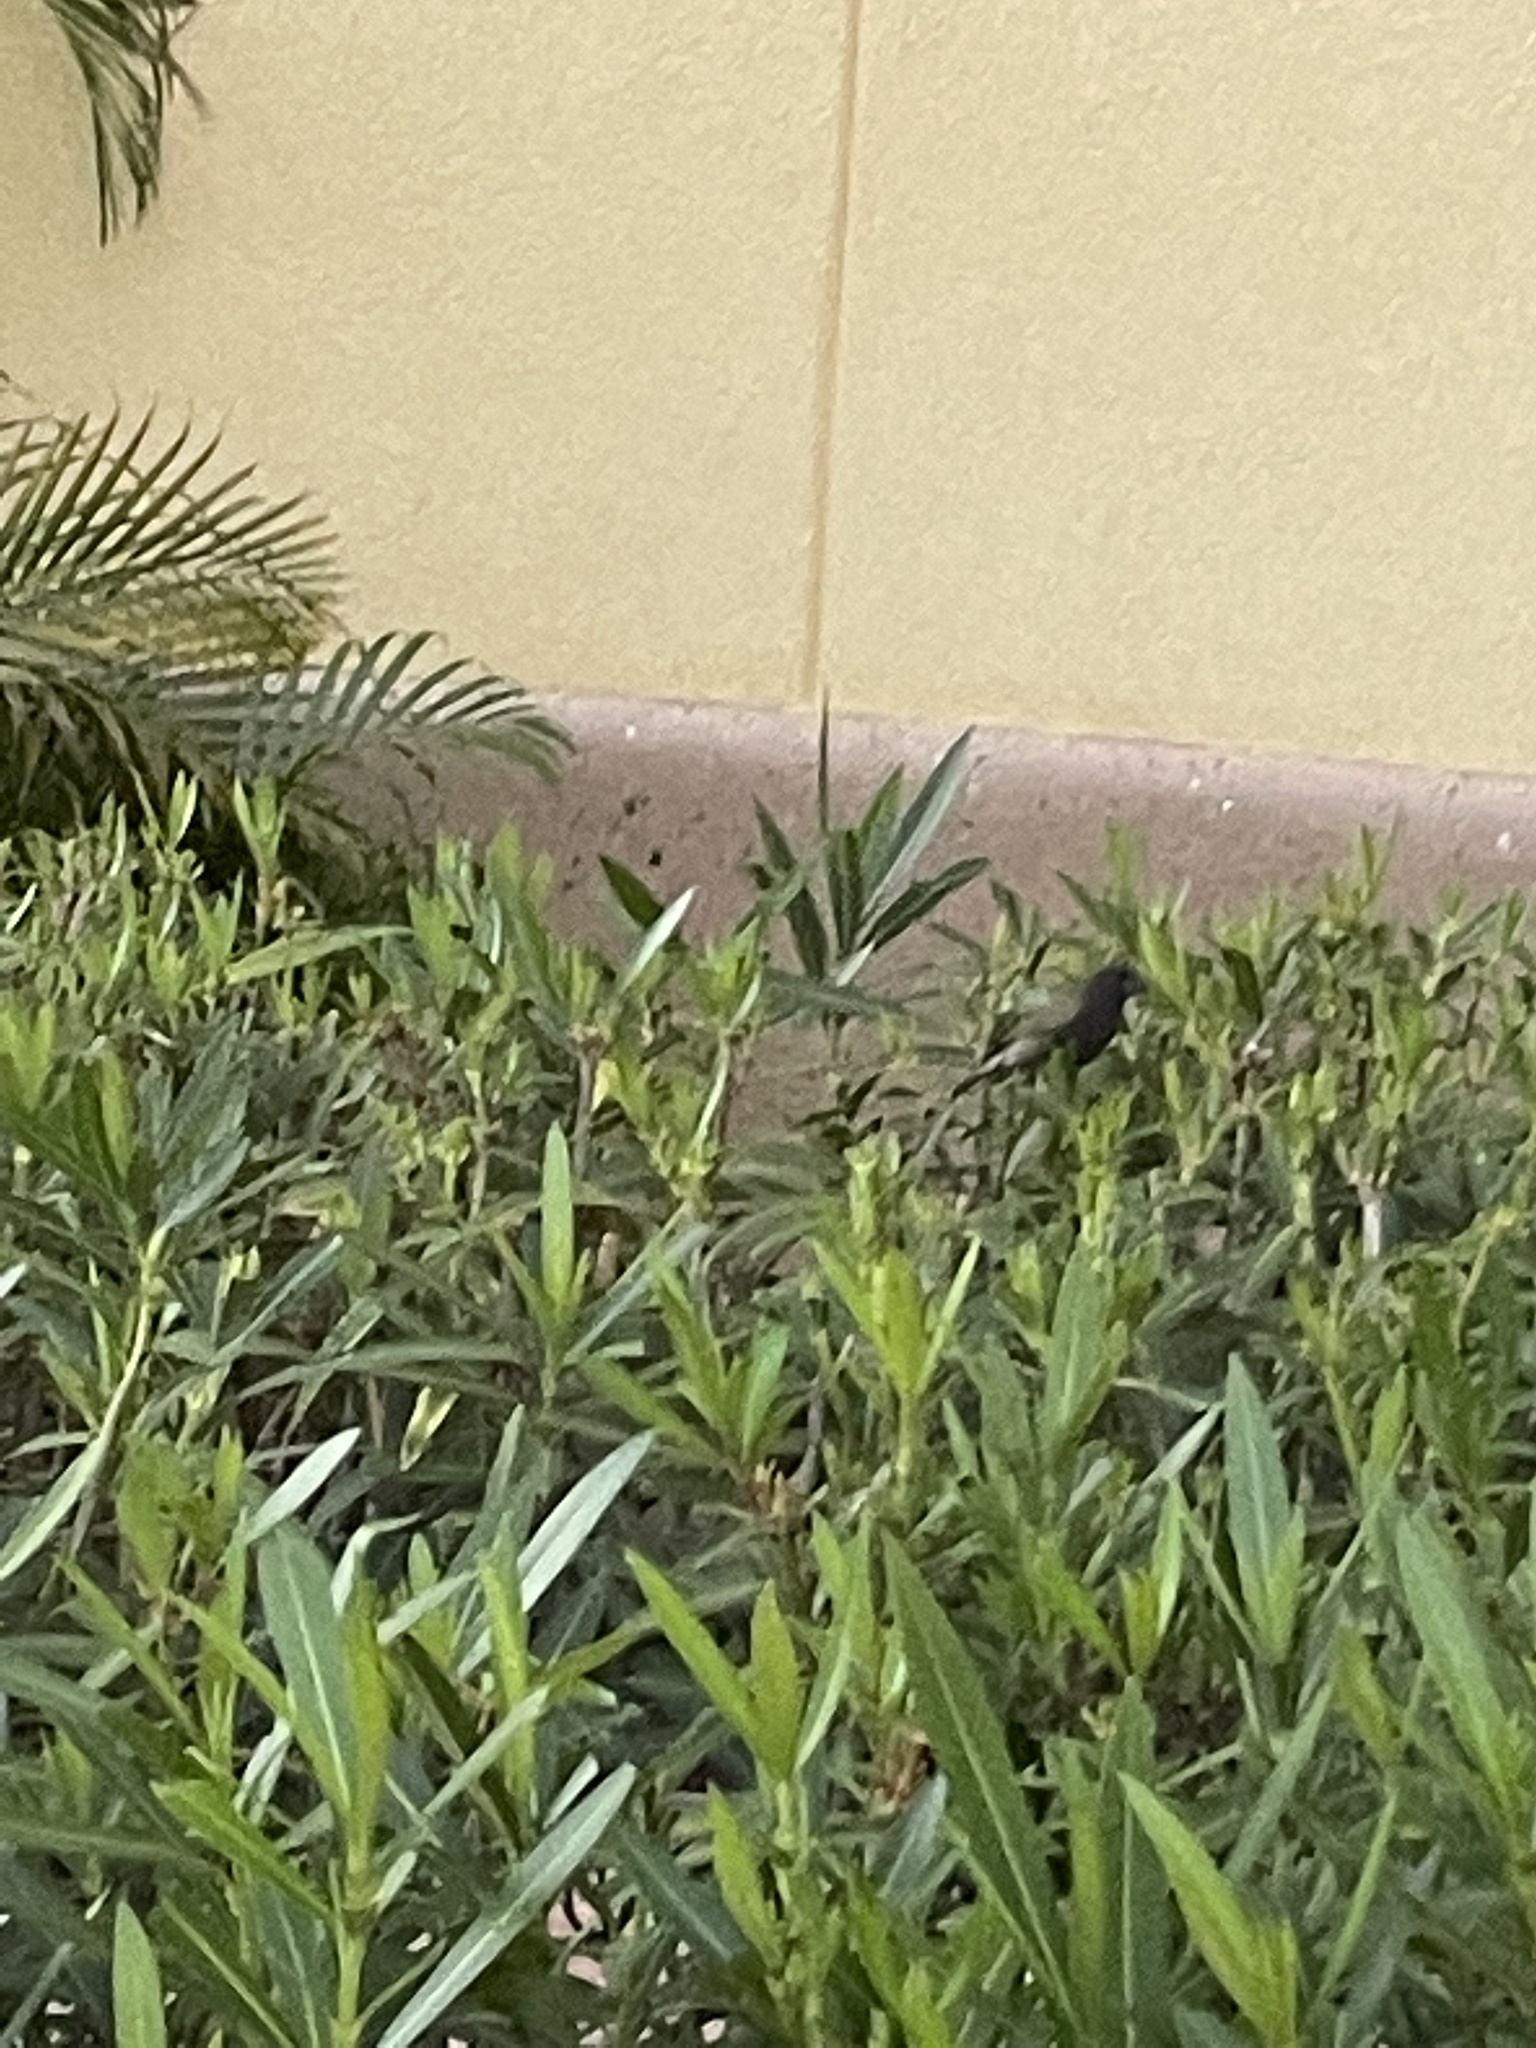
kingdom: Animalia
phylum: Chordata
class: Aves
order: Passeriformes
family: Thraupidae
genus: Melanospiza
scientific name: Melanospiza bicolor
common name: Black-faced grassquit
